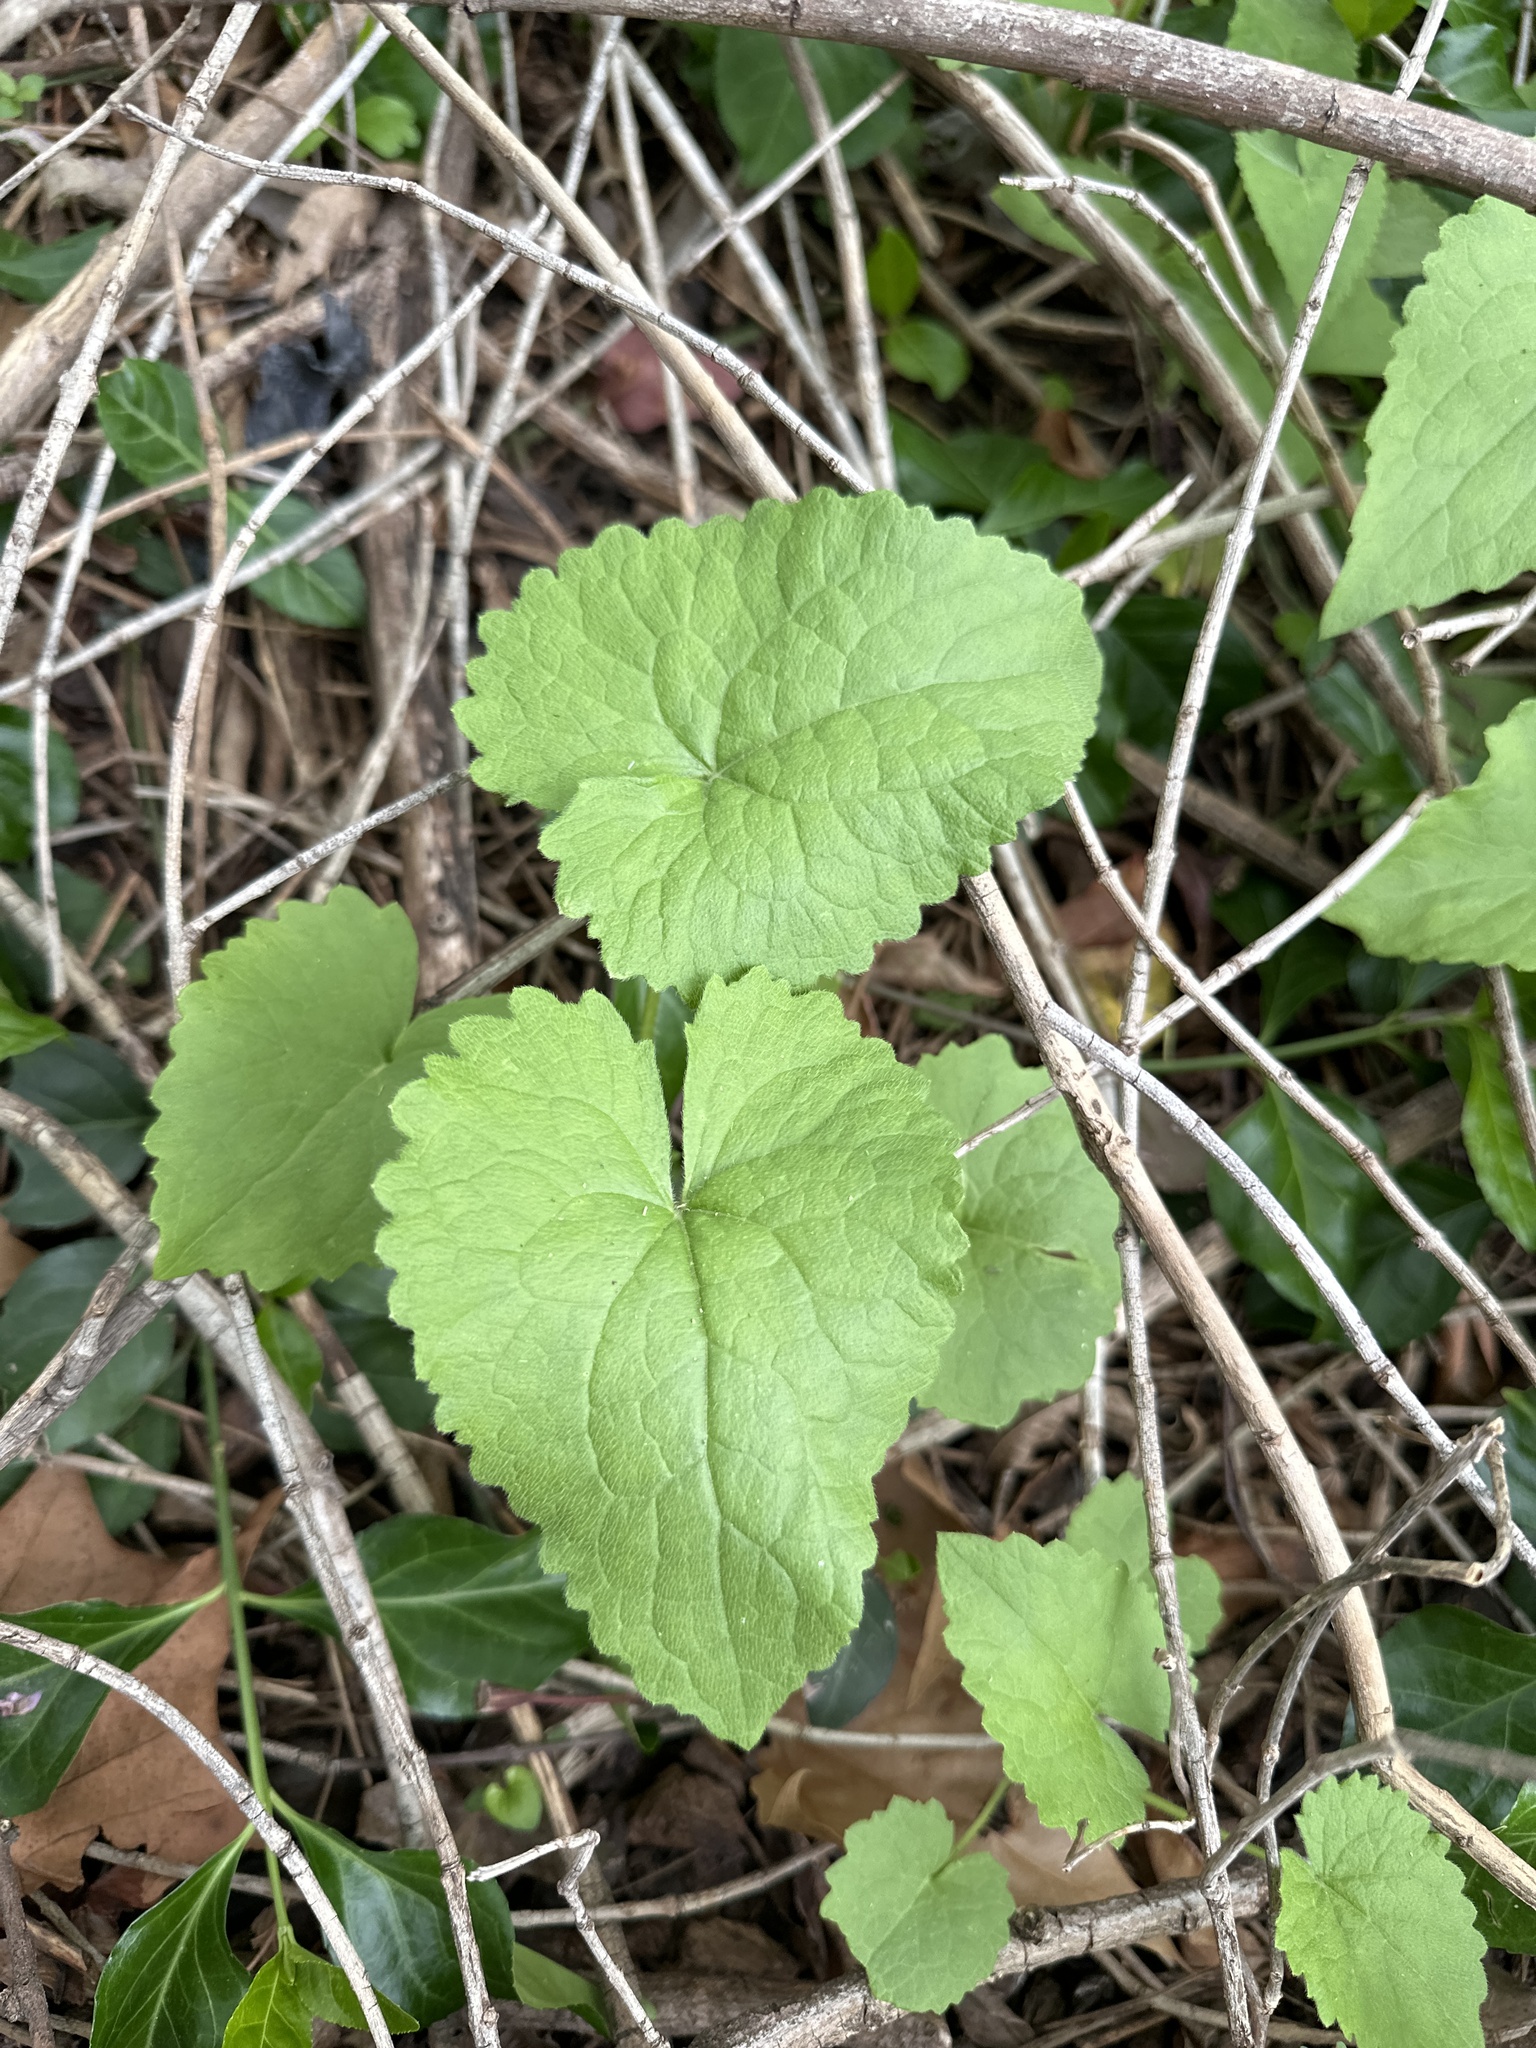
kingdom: Plantae
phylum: Tracheophyta
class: Magnoliopsida
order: Brassicales
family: Brassicaceae
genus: Lunaria
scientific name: Lunaria annua
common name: Honesty
